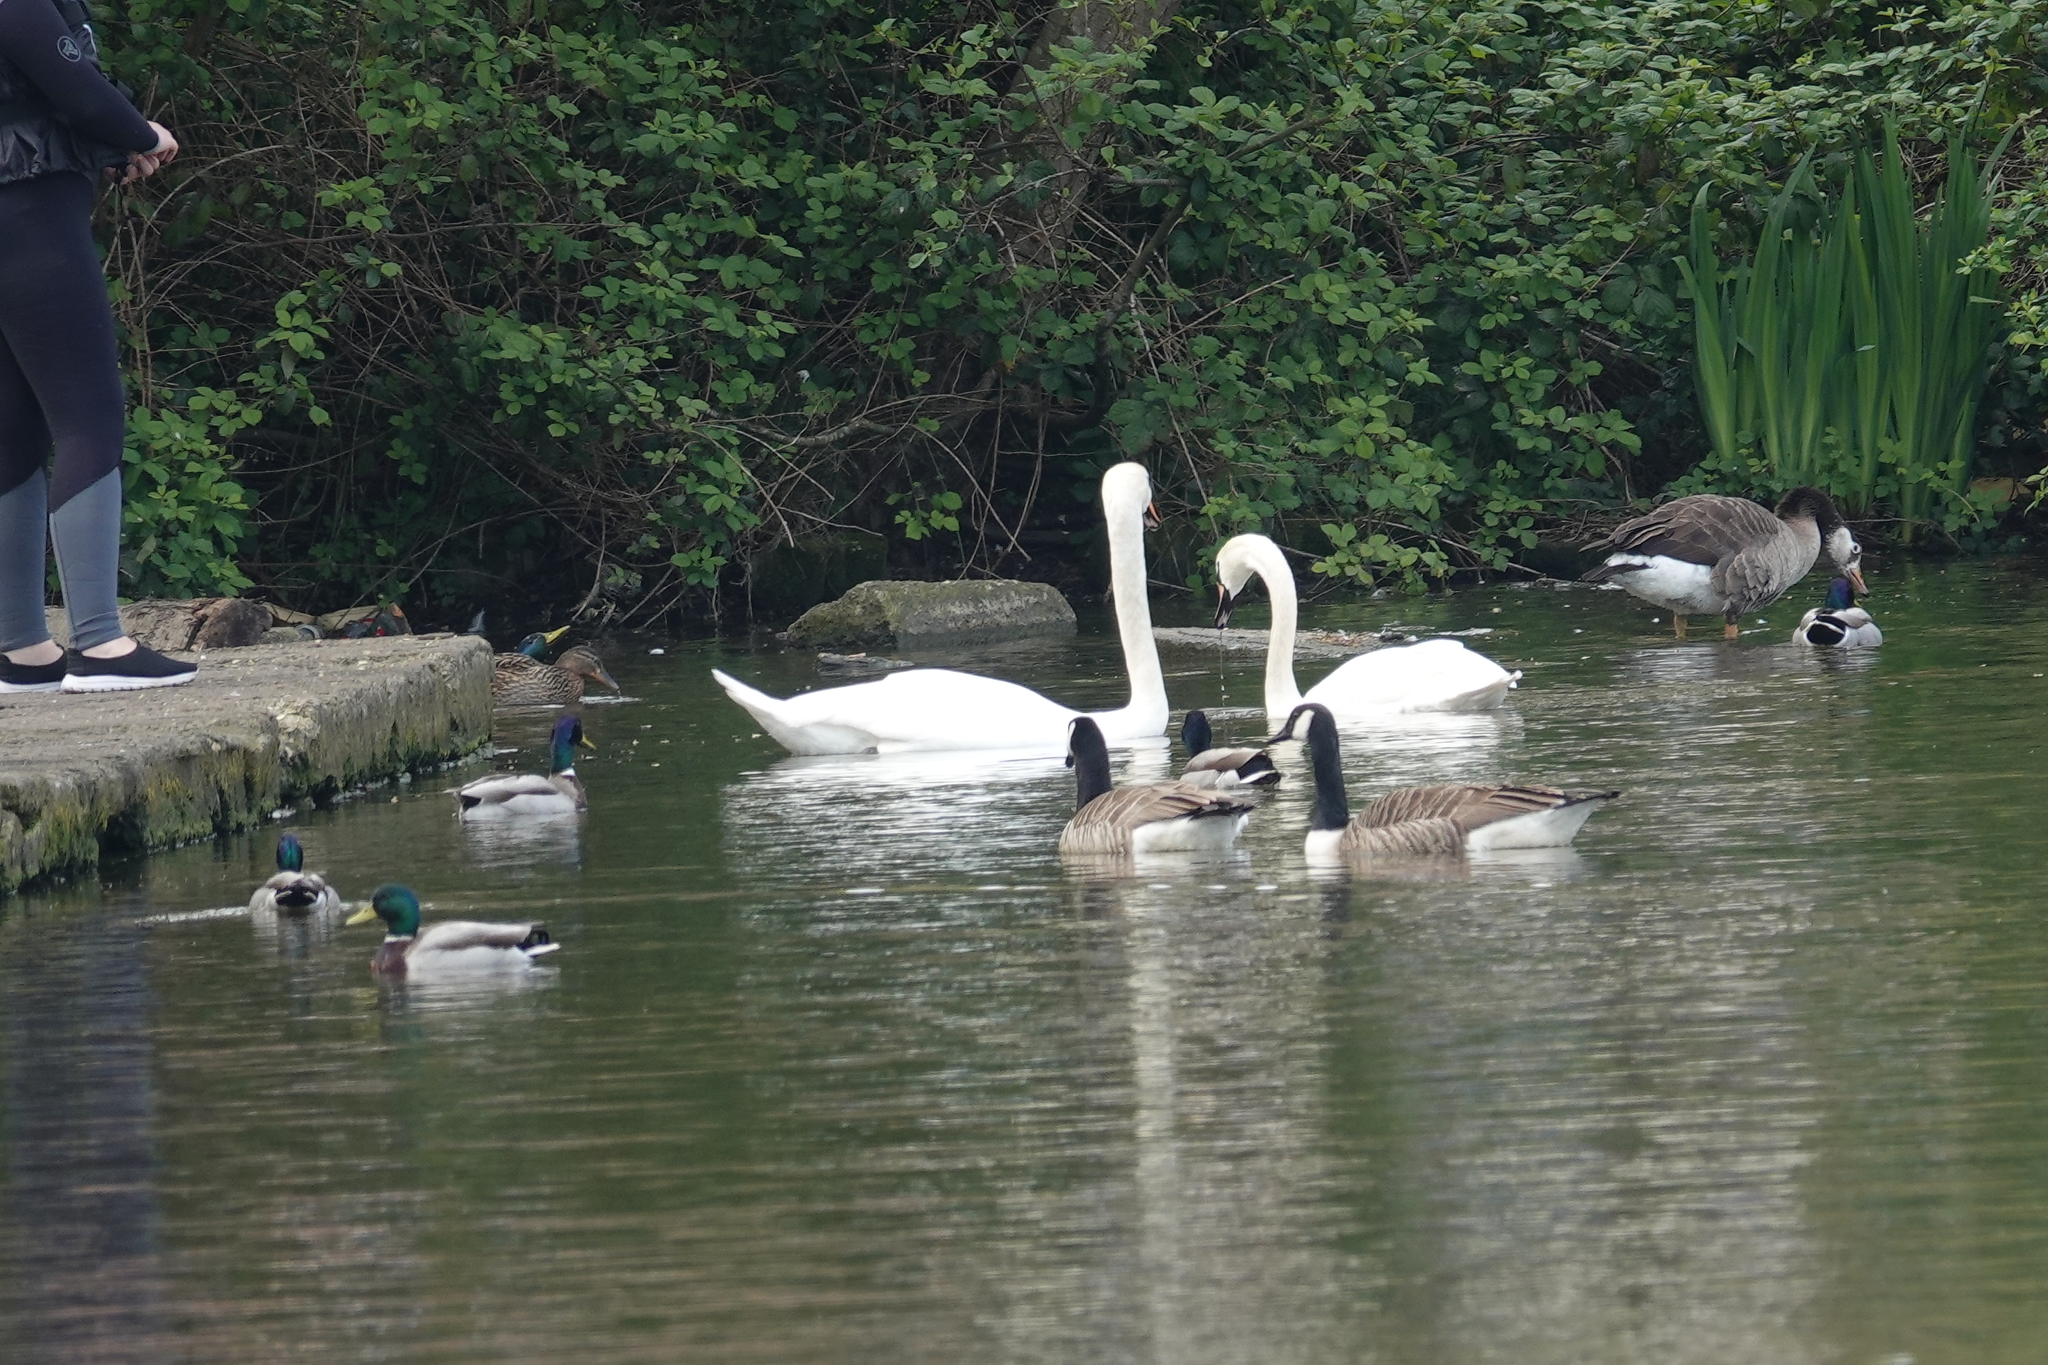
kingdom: Animalia
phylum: Chordata
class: Aves
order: Anseriformes
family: Anatidae
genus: Cygnus
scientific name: Cygnus olor
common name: Mute swan
